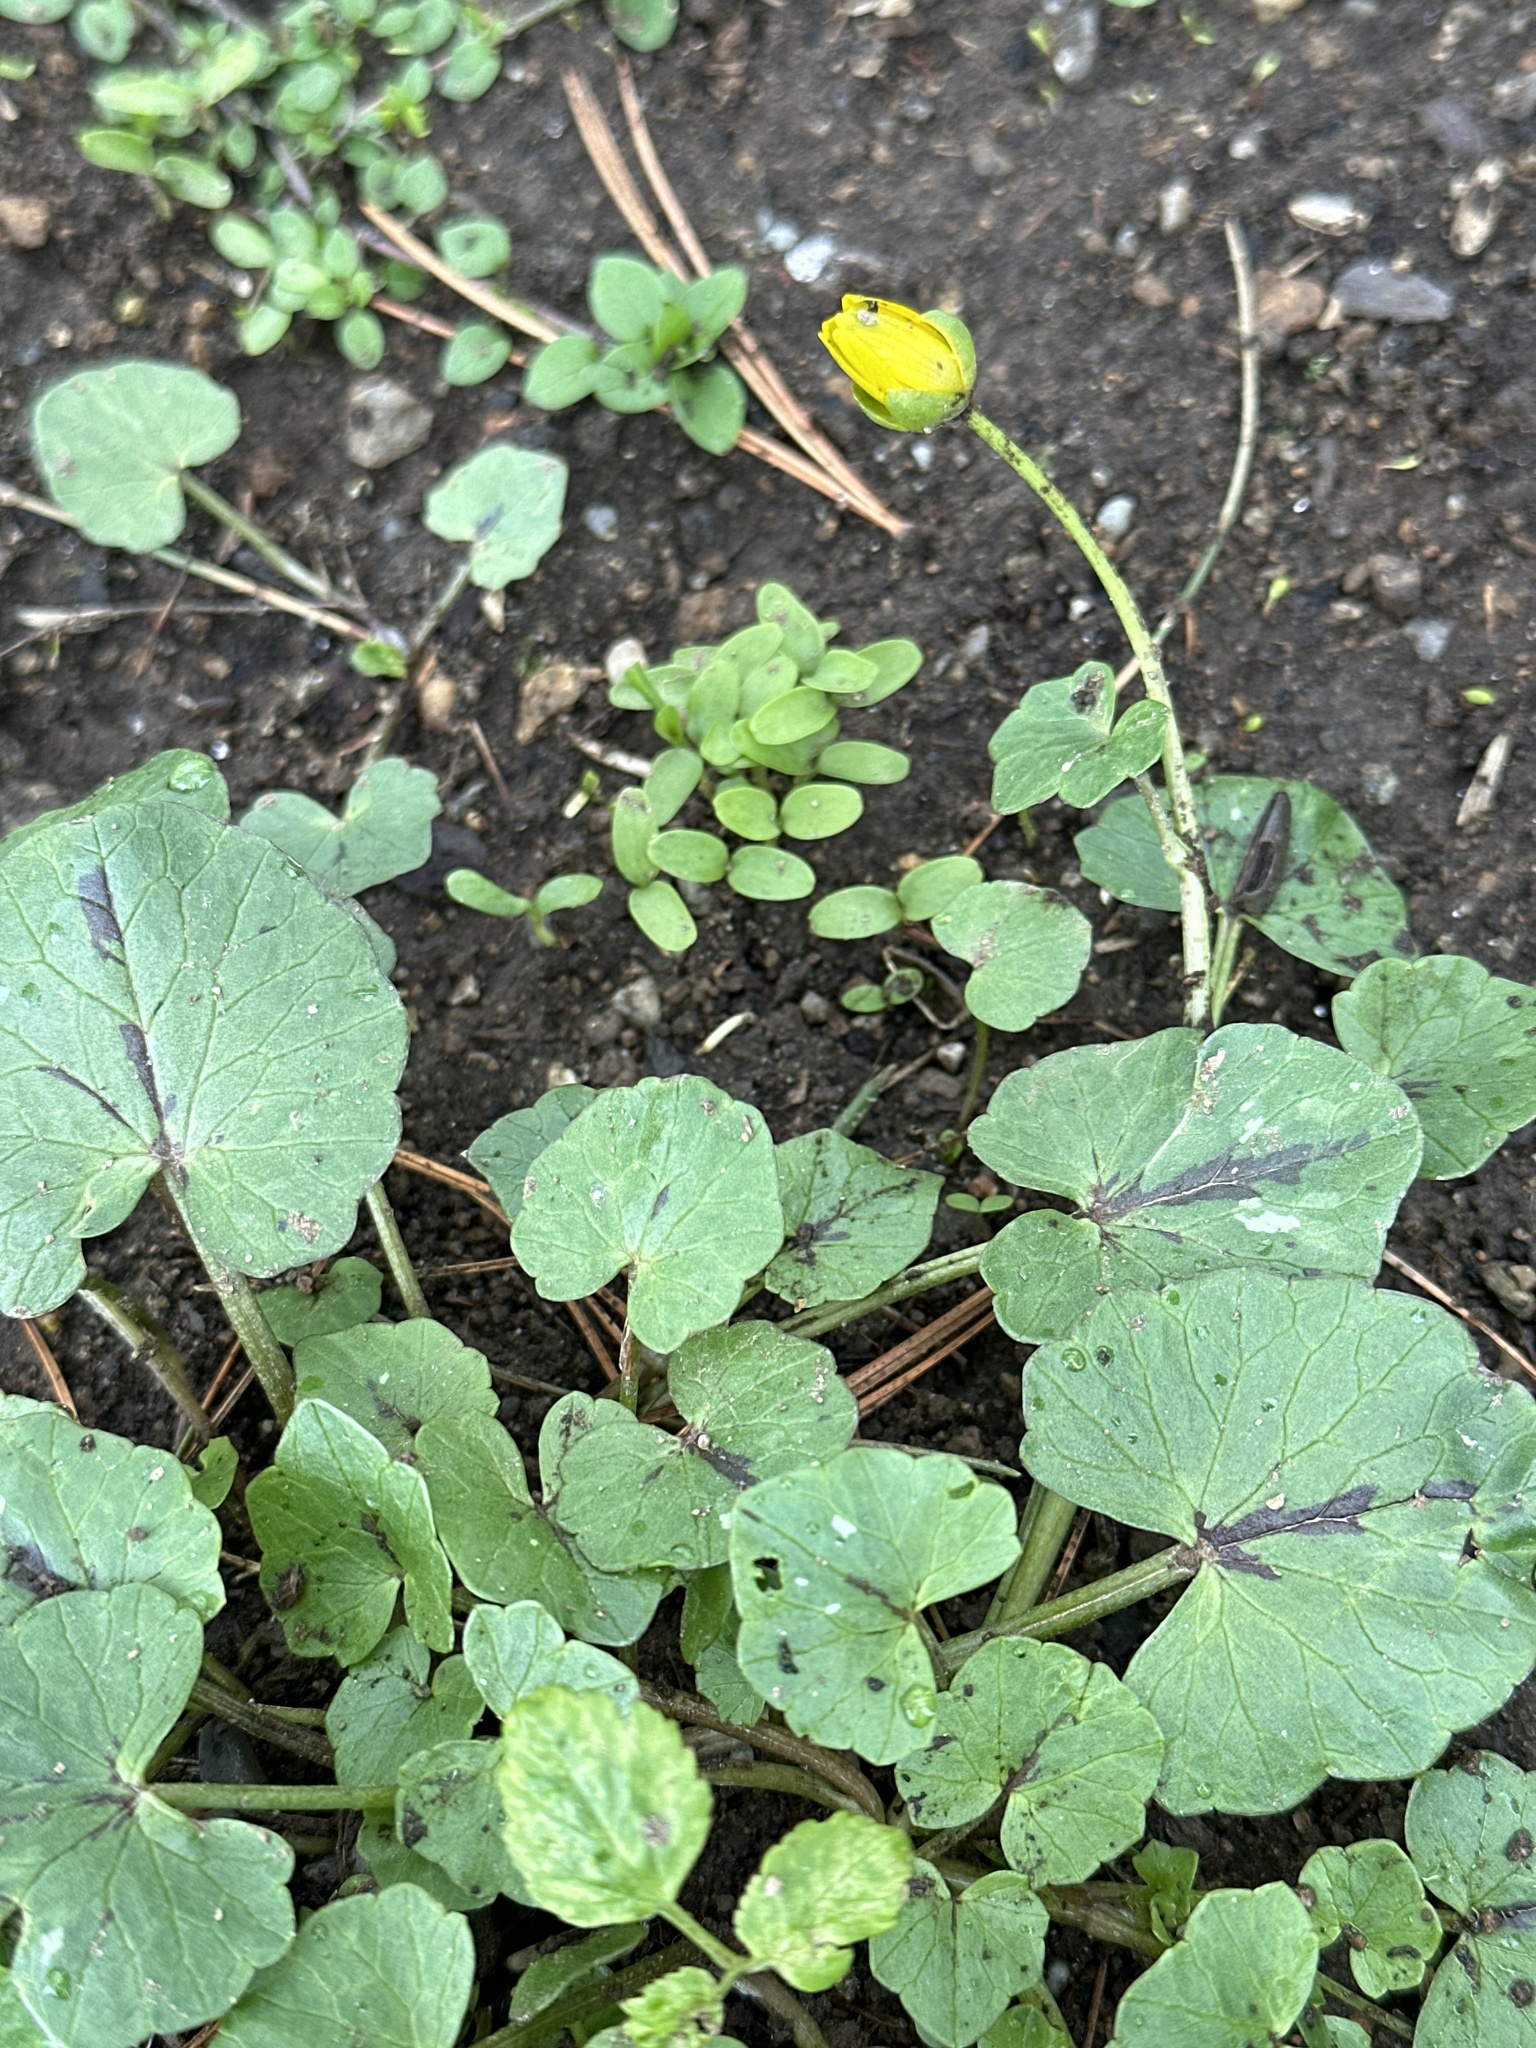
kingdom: Plantae
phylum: Tracheophyta
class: Magnoliopsida
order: Ranunculales
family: Ranunculaceae
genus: Ficaria
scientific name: Ficaria verna
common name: Lesser celandine
